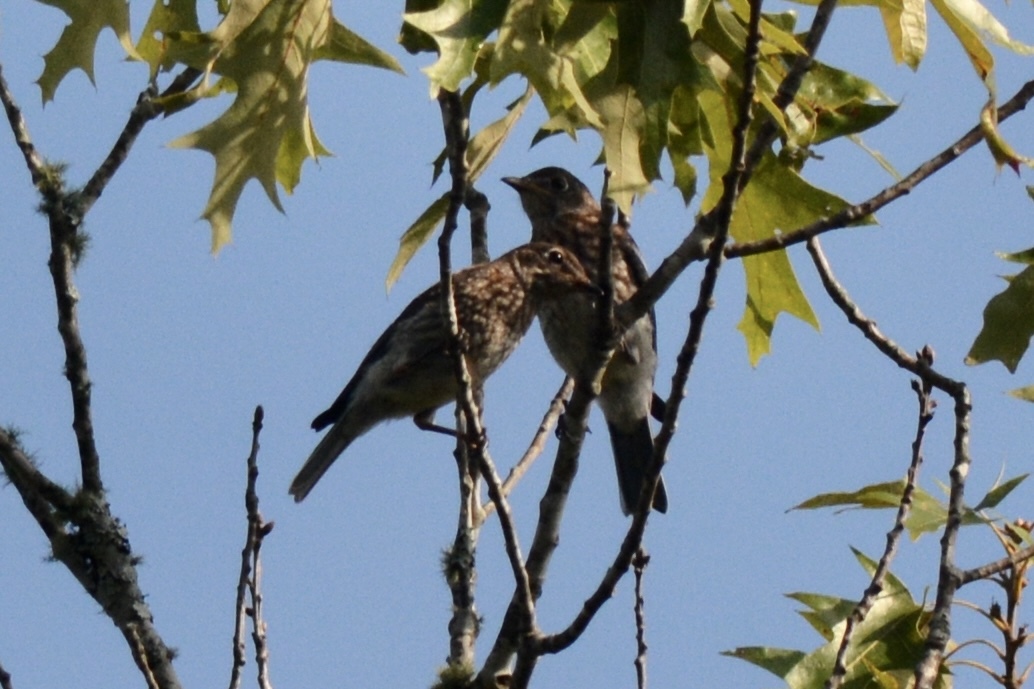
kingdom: Animalia
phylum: Chordata
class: Aves
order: Passeriformes
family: Turdidae
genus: Sialia
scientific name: Sialia sialis
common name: Eastern bluebird
